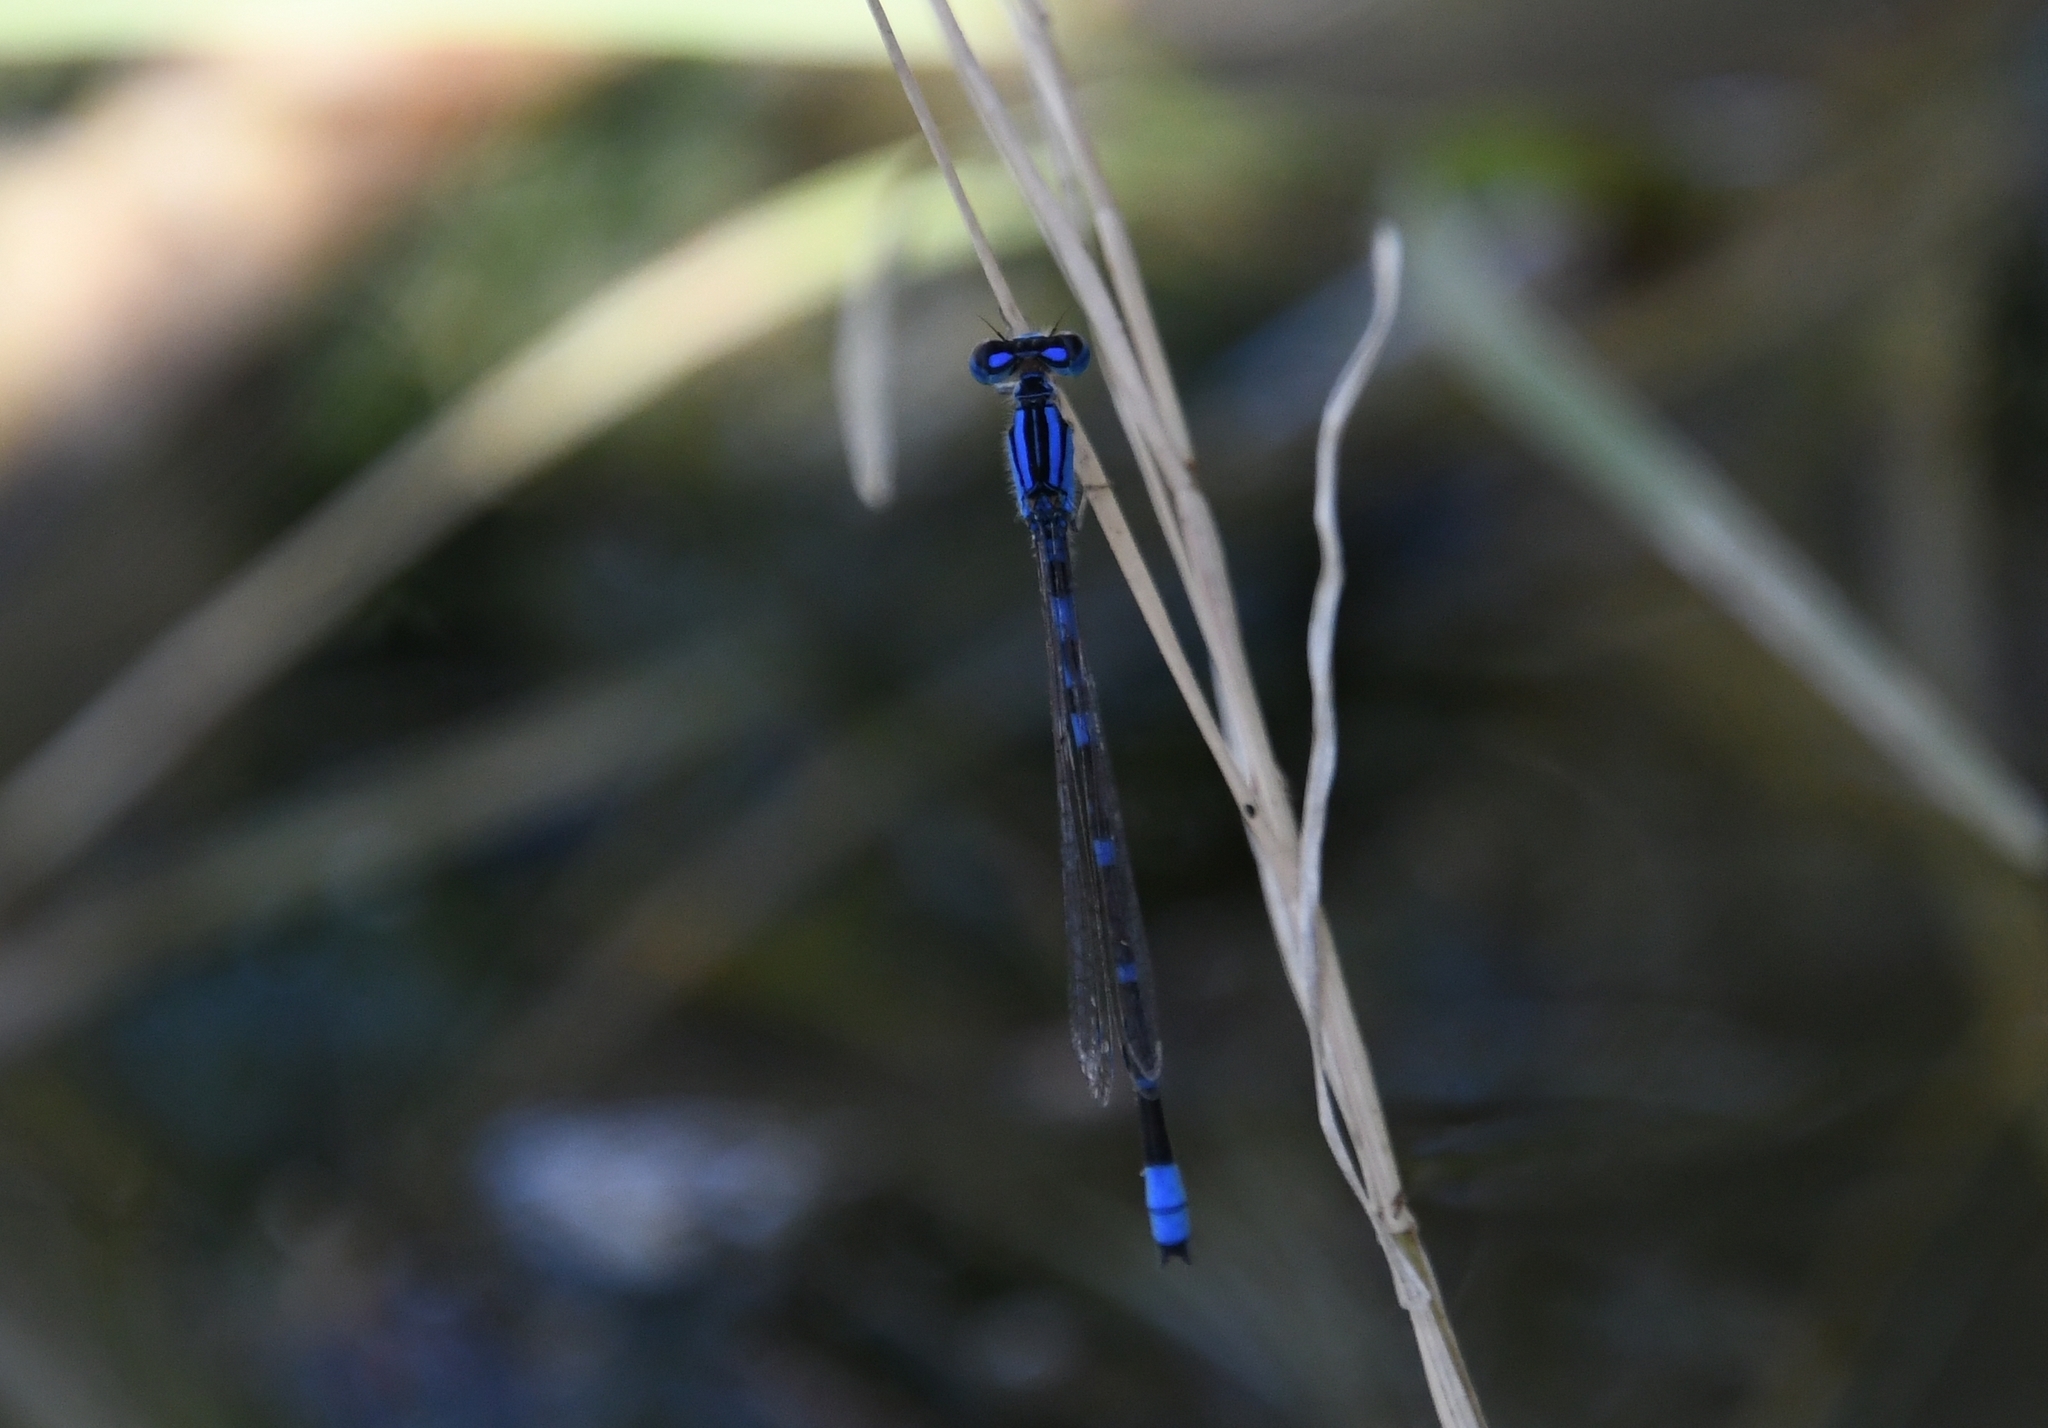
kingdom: Animalia
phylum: Arthropoda
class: Insecta
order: Odonata
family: Coenagrionidae
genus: Enallagma
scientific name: Enallagma praevarum
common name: Arroyo bluet
